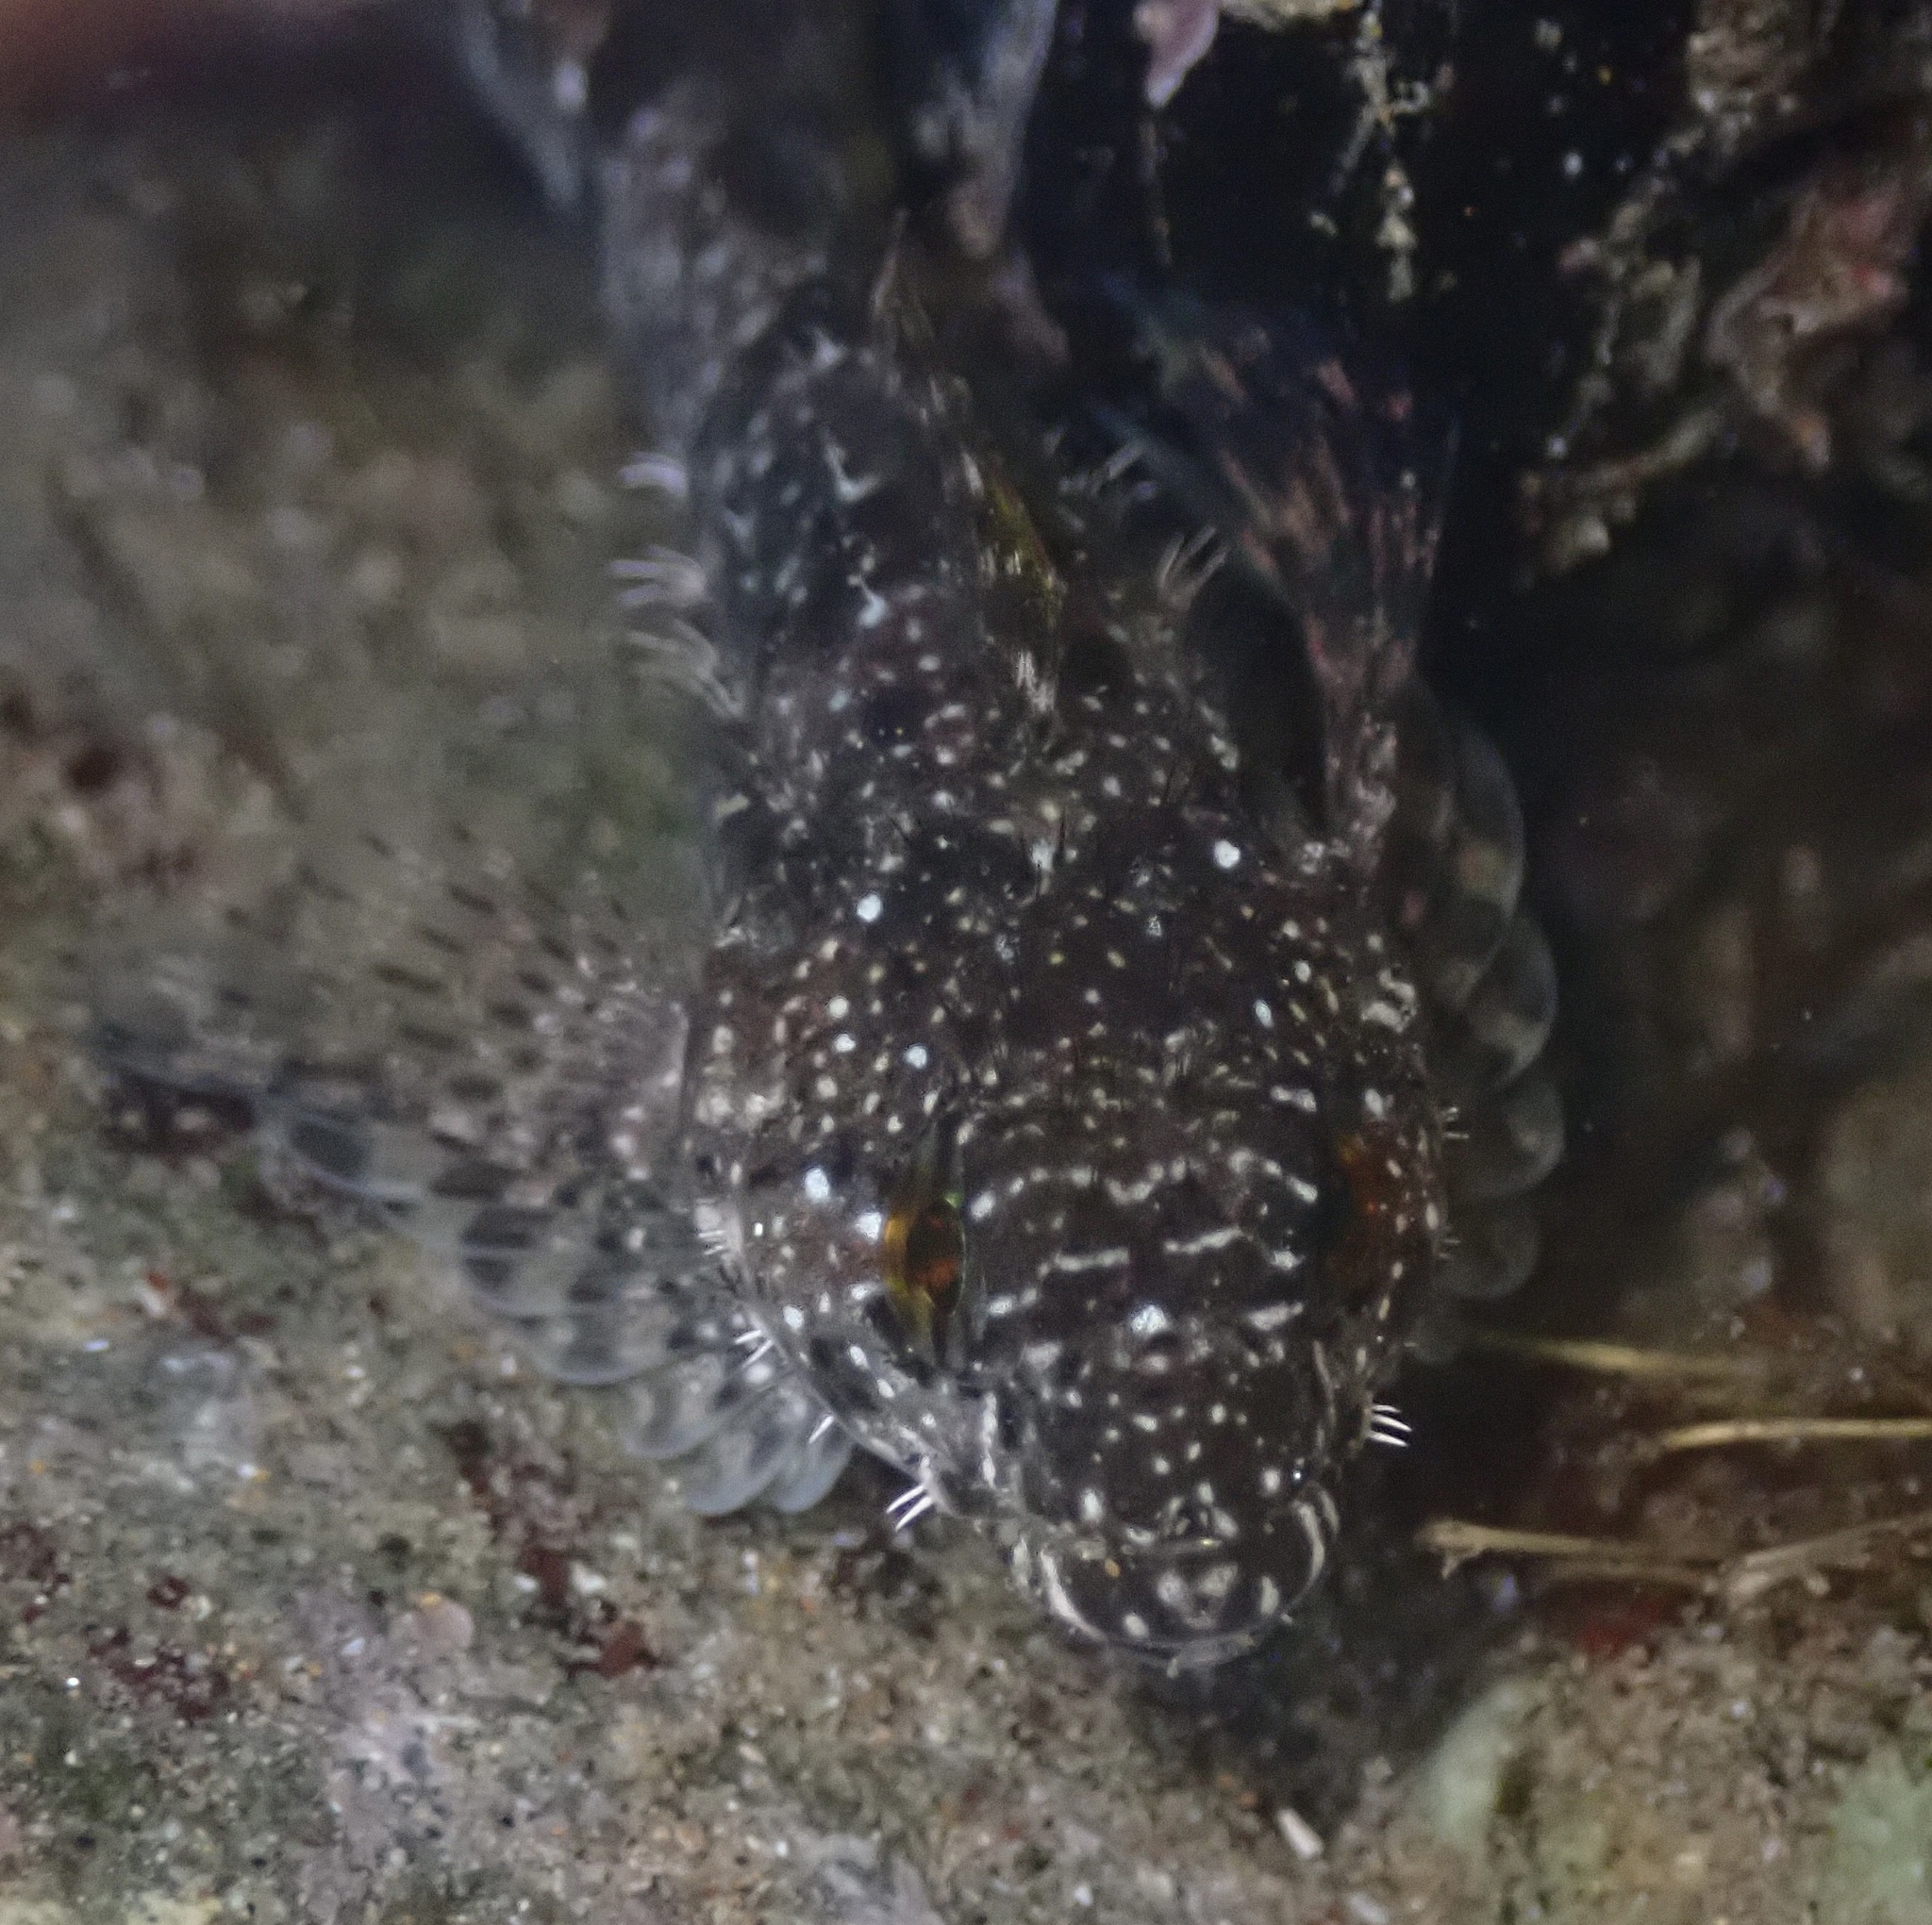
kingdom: Animalia
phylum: Chordata
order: Scorpaeniformes
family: Cottidae
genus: Clinocottus
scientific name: Clinocottus analis
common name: Woolly sculpin
